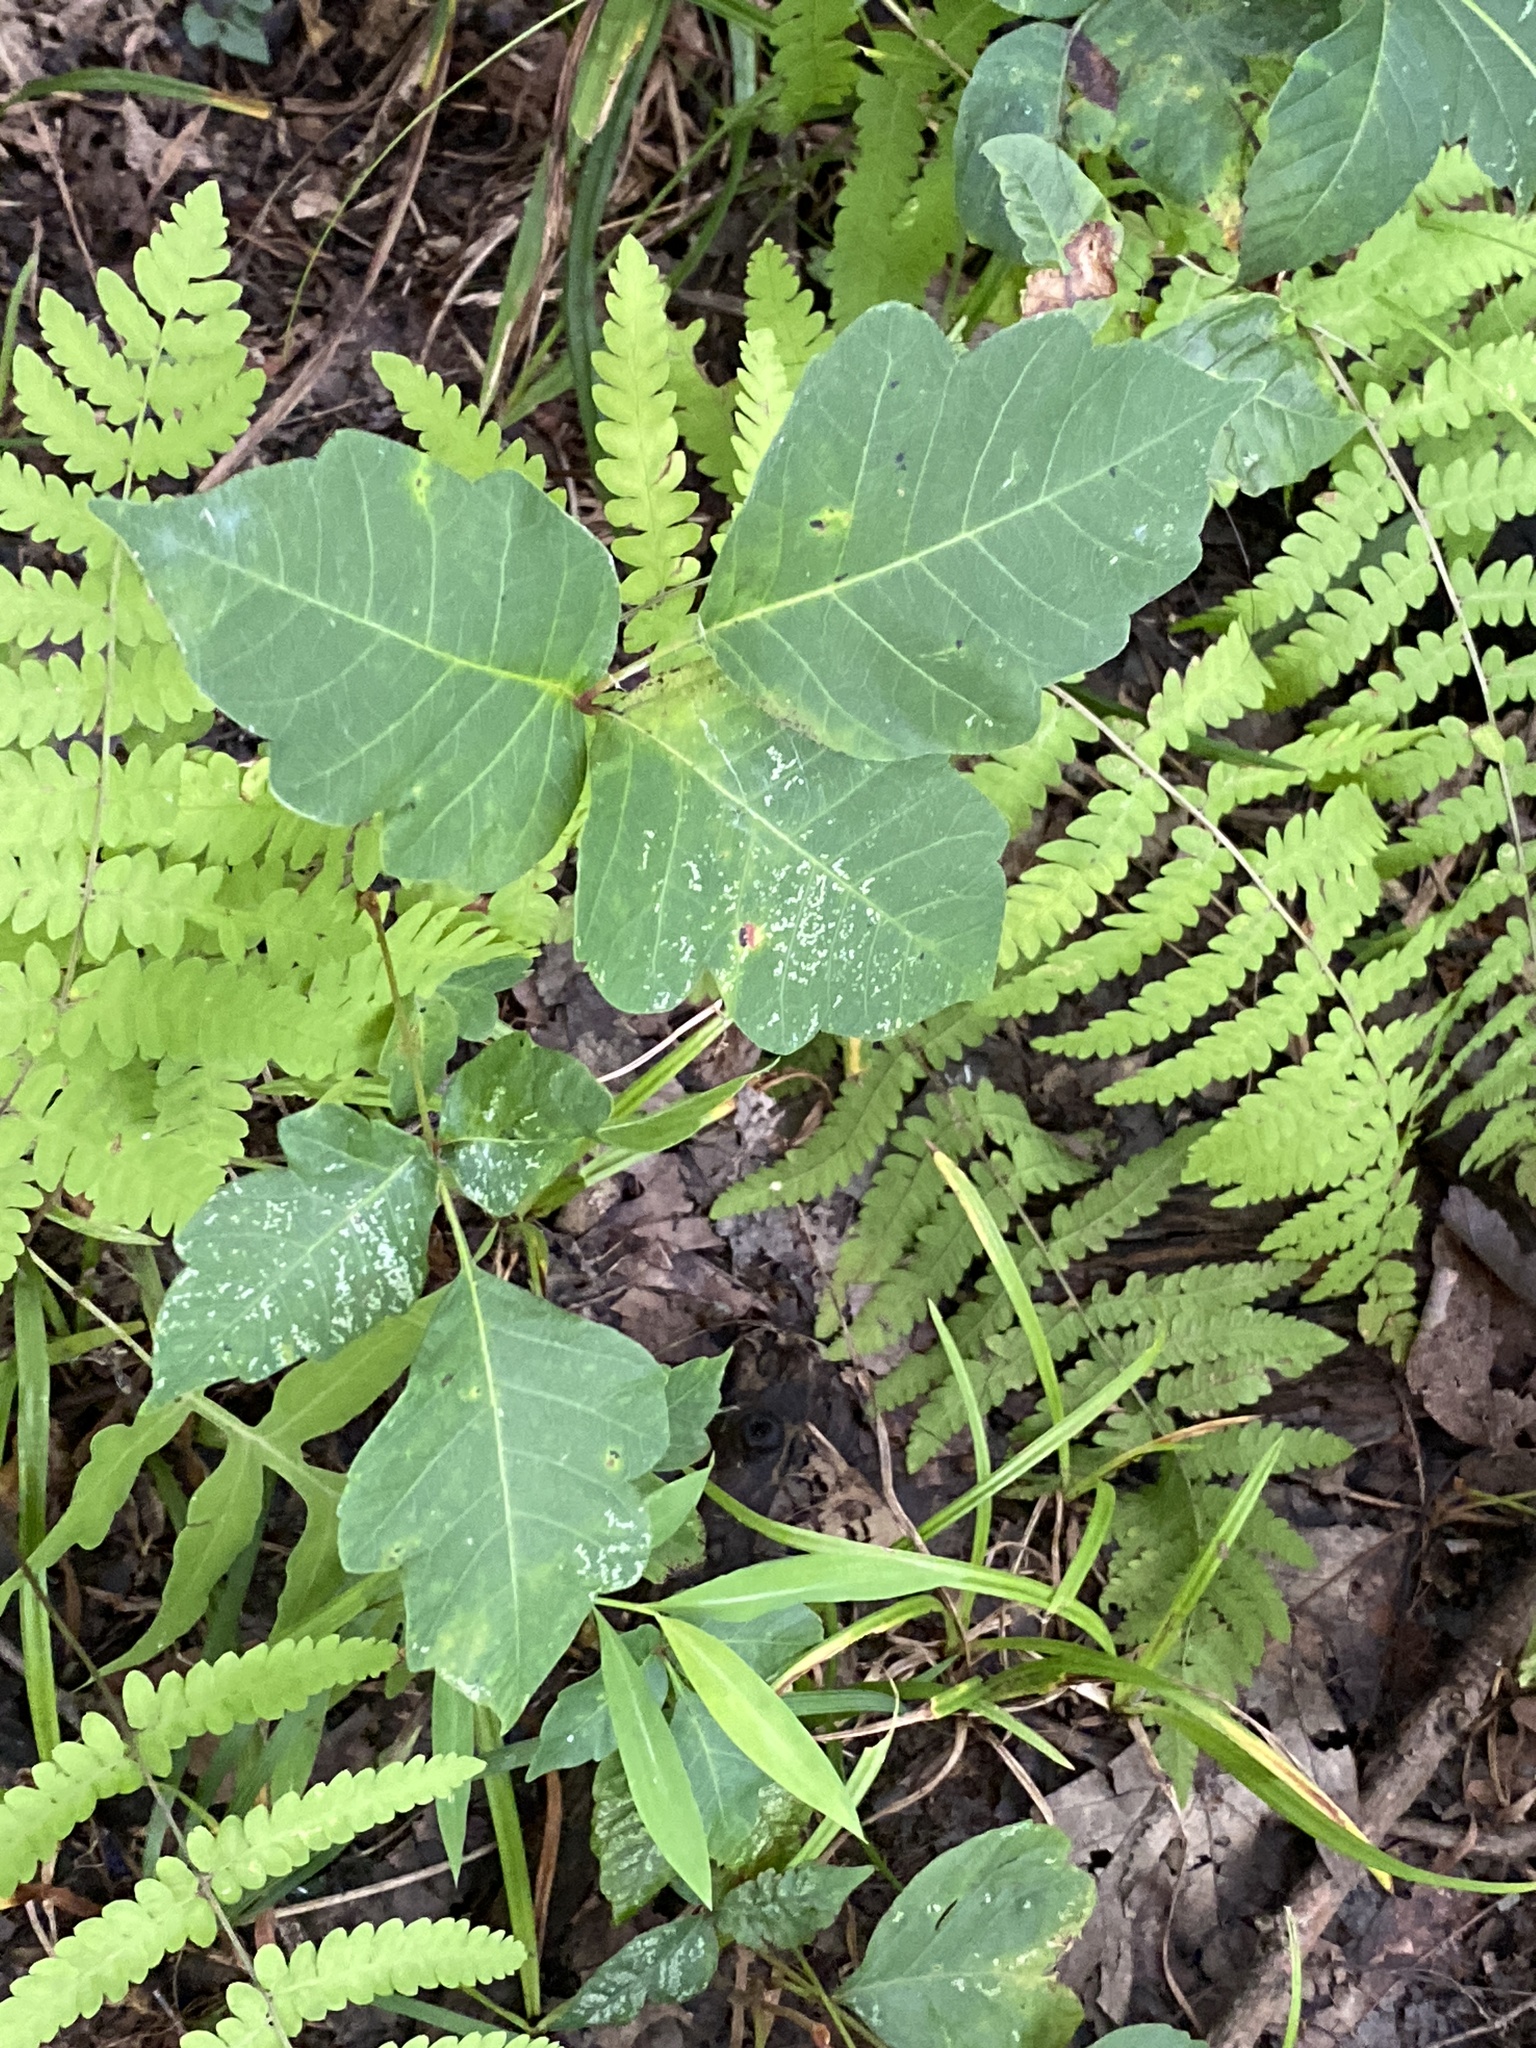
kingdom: Plantae
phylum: Tracheophyta
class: Magnoliopsida
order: Sapindales
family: Anacardiaceae
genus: Toxicodendron
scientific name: Toxicodendron radicans
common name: Poison ivy
